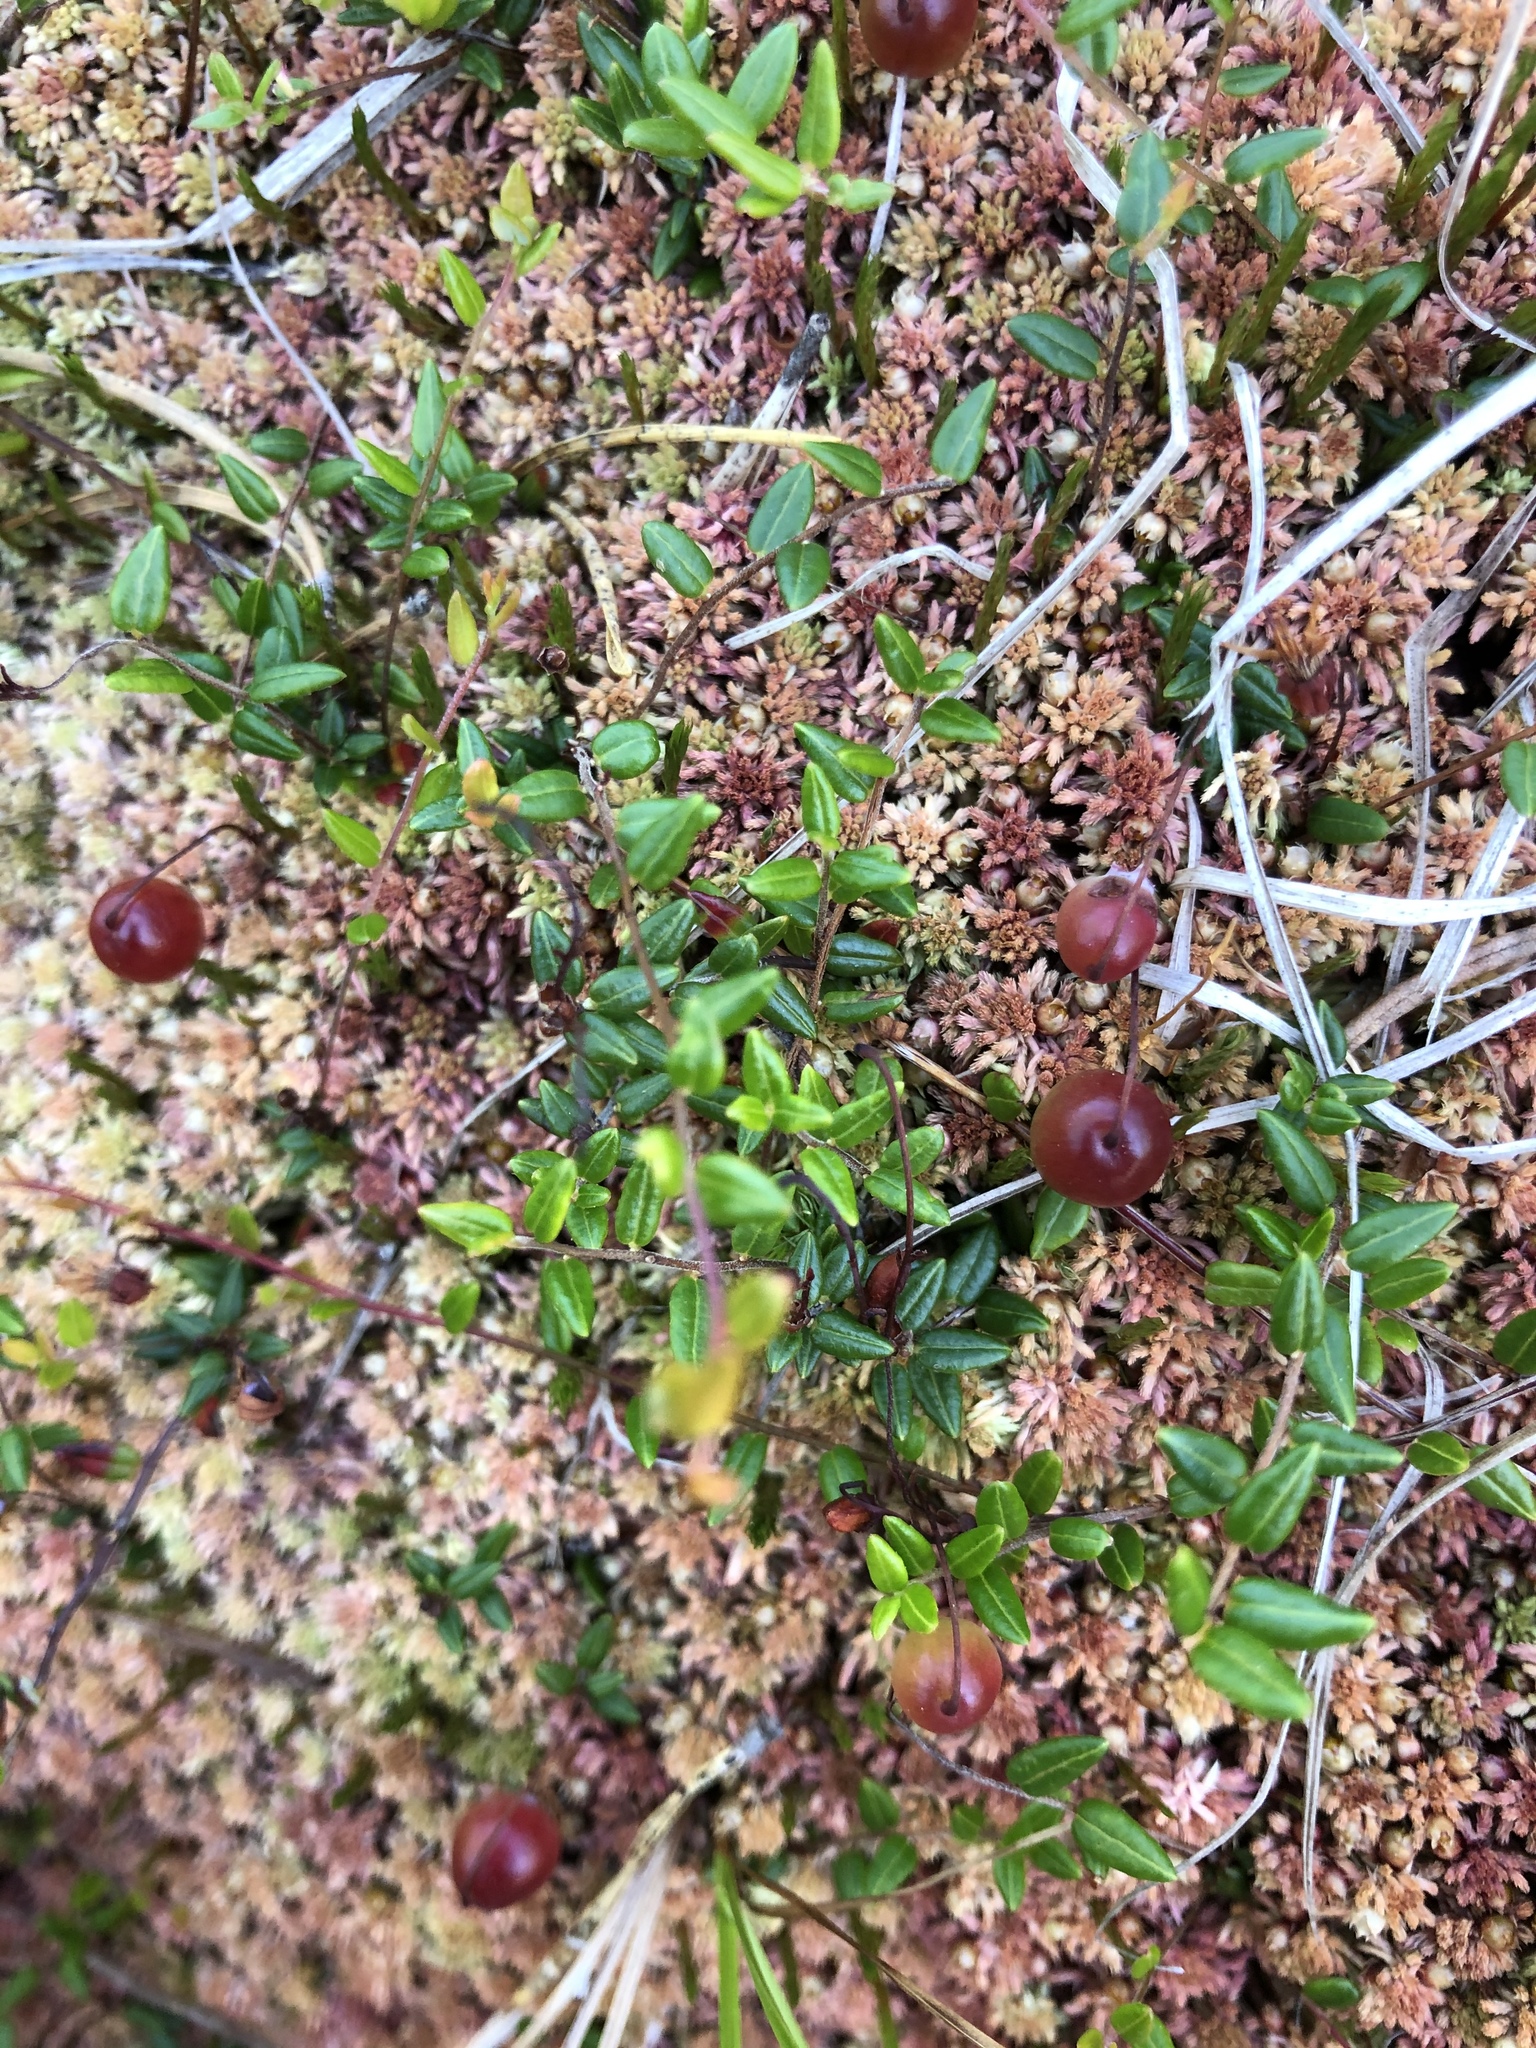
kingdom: Plantae
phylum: Tracheophyta
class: Magnoliopsida
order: Ericales
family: Ericaceae
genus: Vaccinium
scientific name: Vaccinium microcarpum
